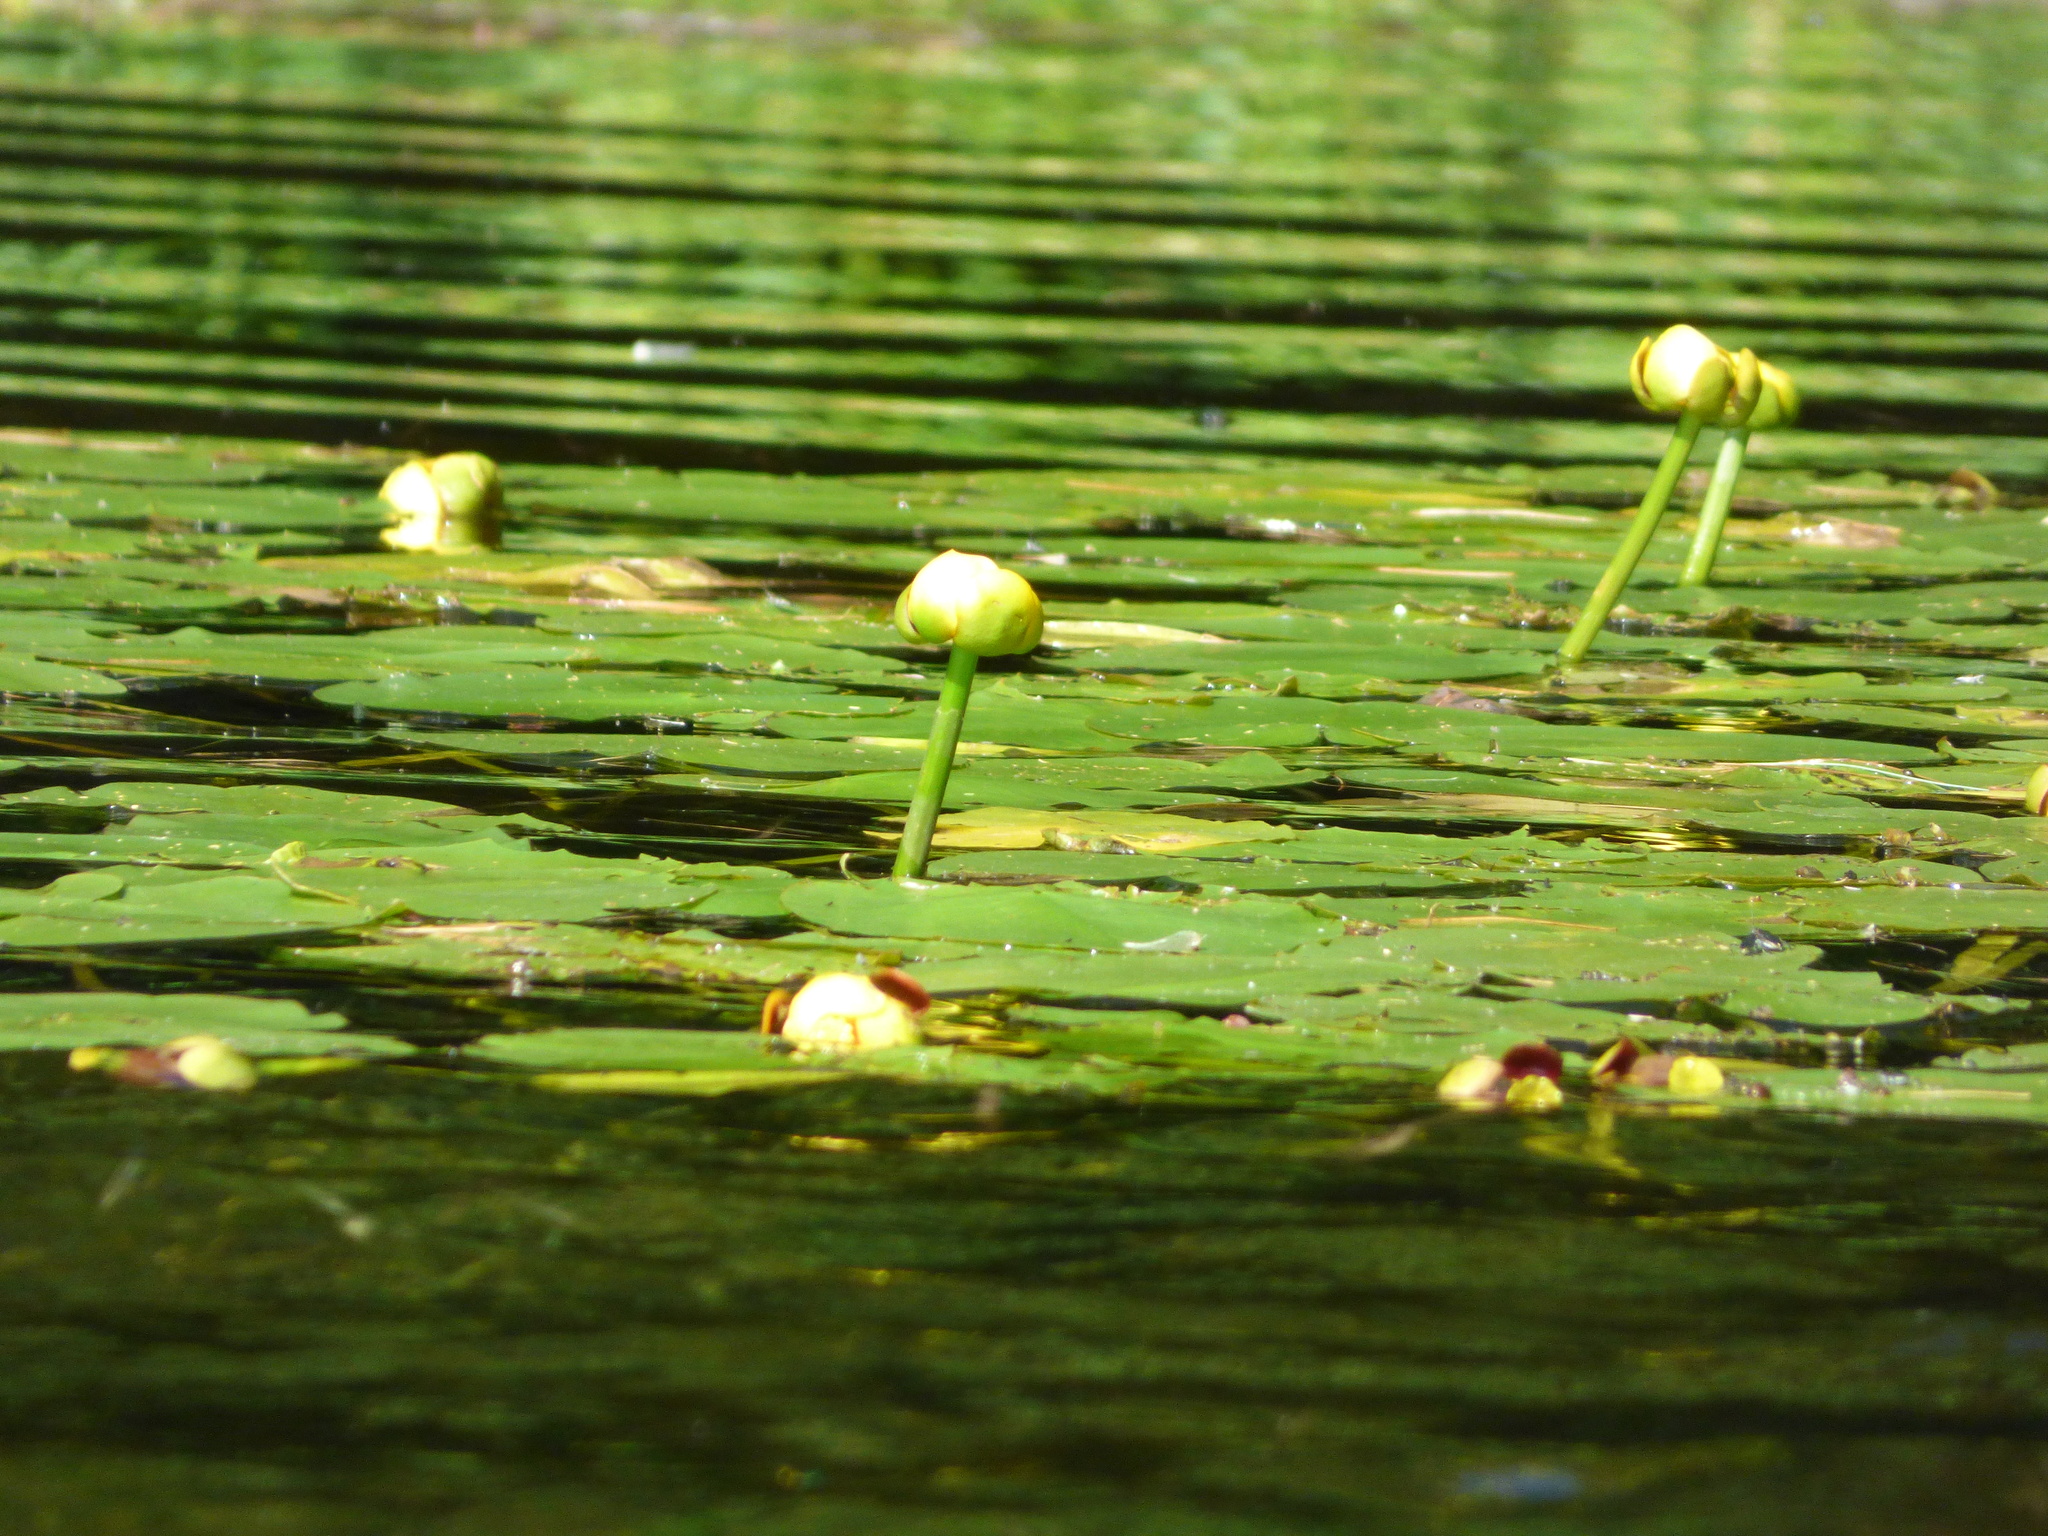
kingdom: Plantae
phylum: Tracheophyta
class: Magnoliopsida
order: Nymphaeales
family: Nymphaeaceae
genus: Nuphar
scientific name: Nuphar variegata
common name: Beaver-root
